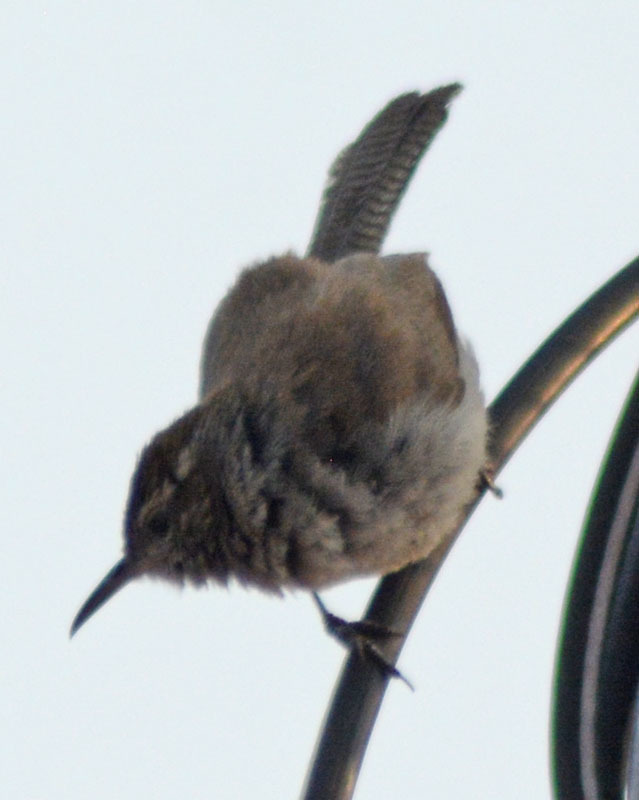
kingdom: Animalia
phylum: Chordata
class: Aves
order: Passeriformes
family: Troglodytidae
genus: Thryomanes
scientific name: Thryomanes bewickii
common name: Bewick's wren
